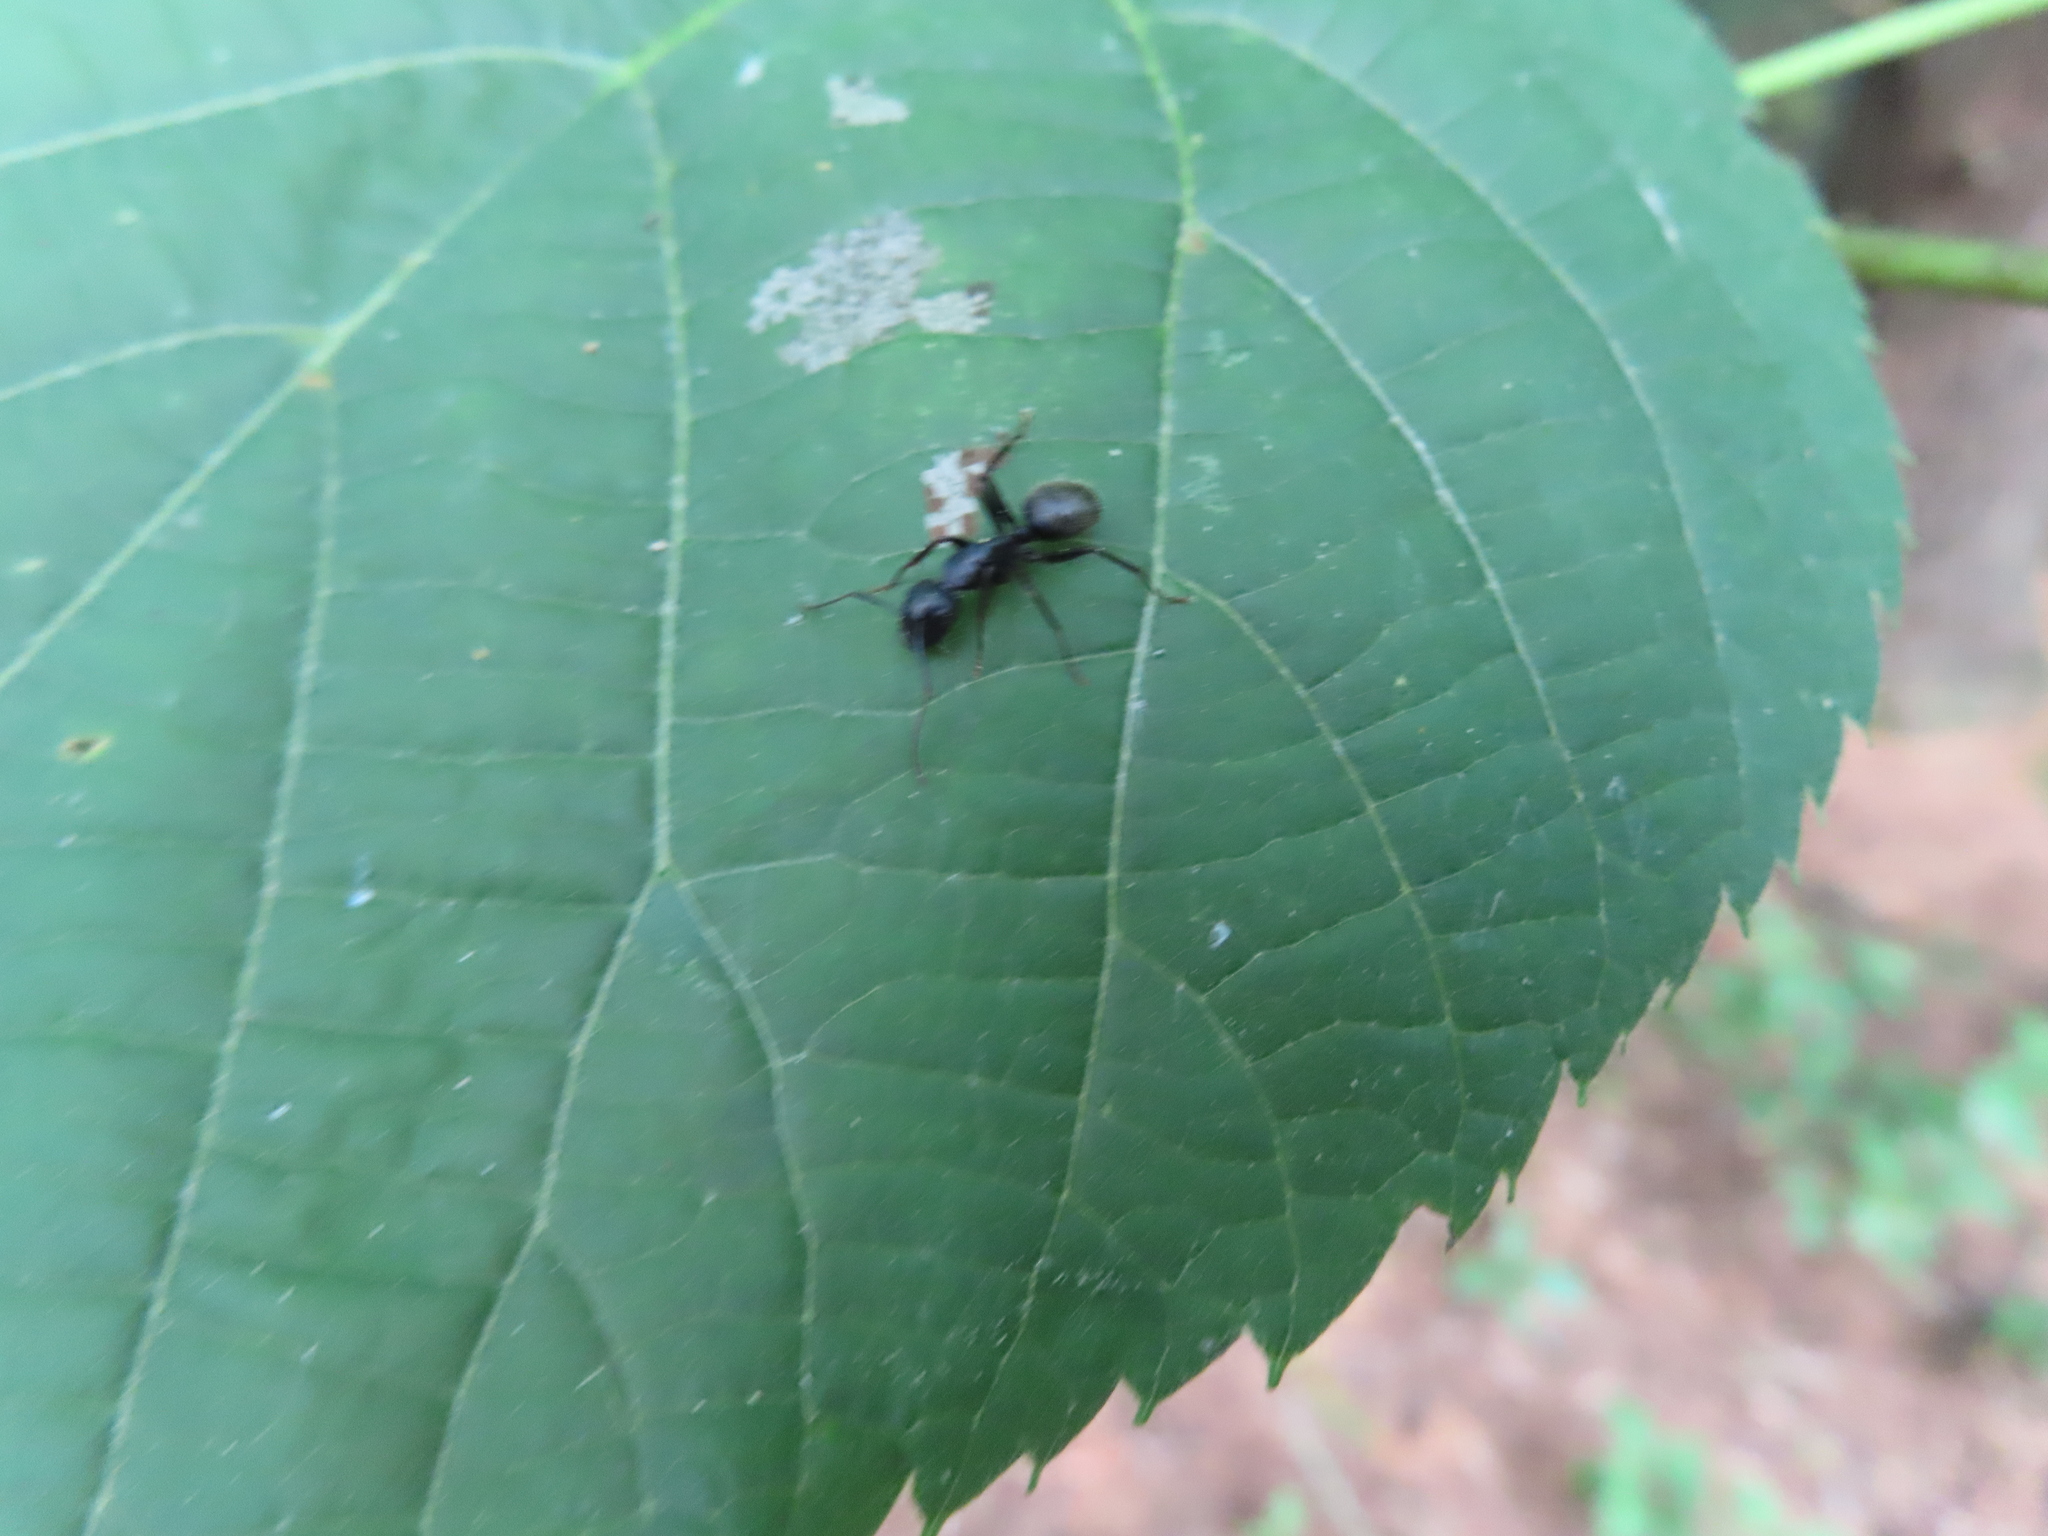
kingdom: Animalia
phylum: Arthropoda
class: Insecta
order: Hymenoptera
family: Formicidae
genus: Camponotus
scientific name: Camponotus pennsylvanicus
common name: Black carpenter ant
